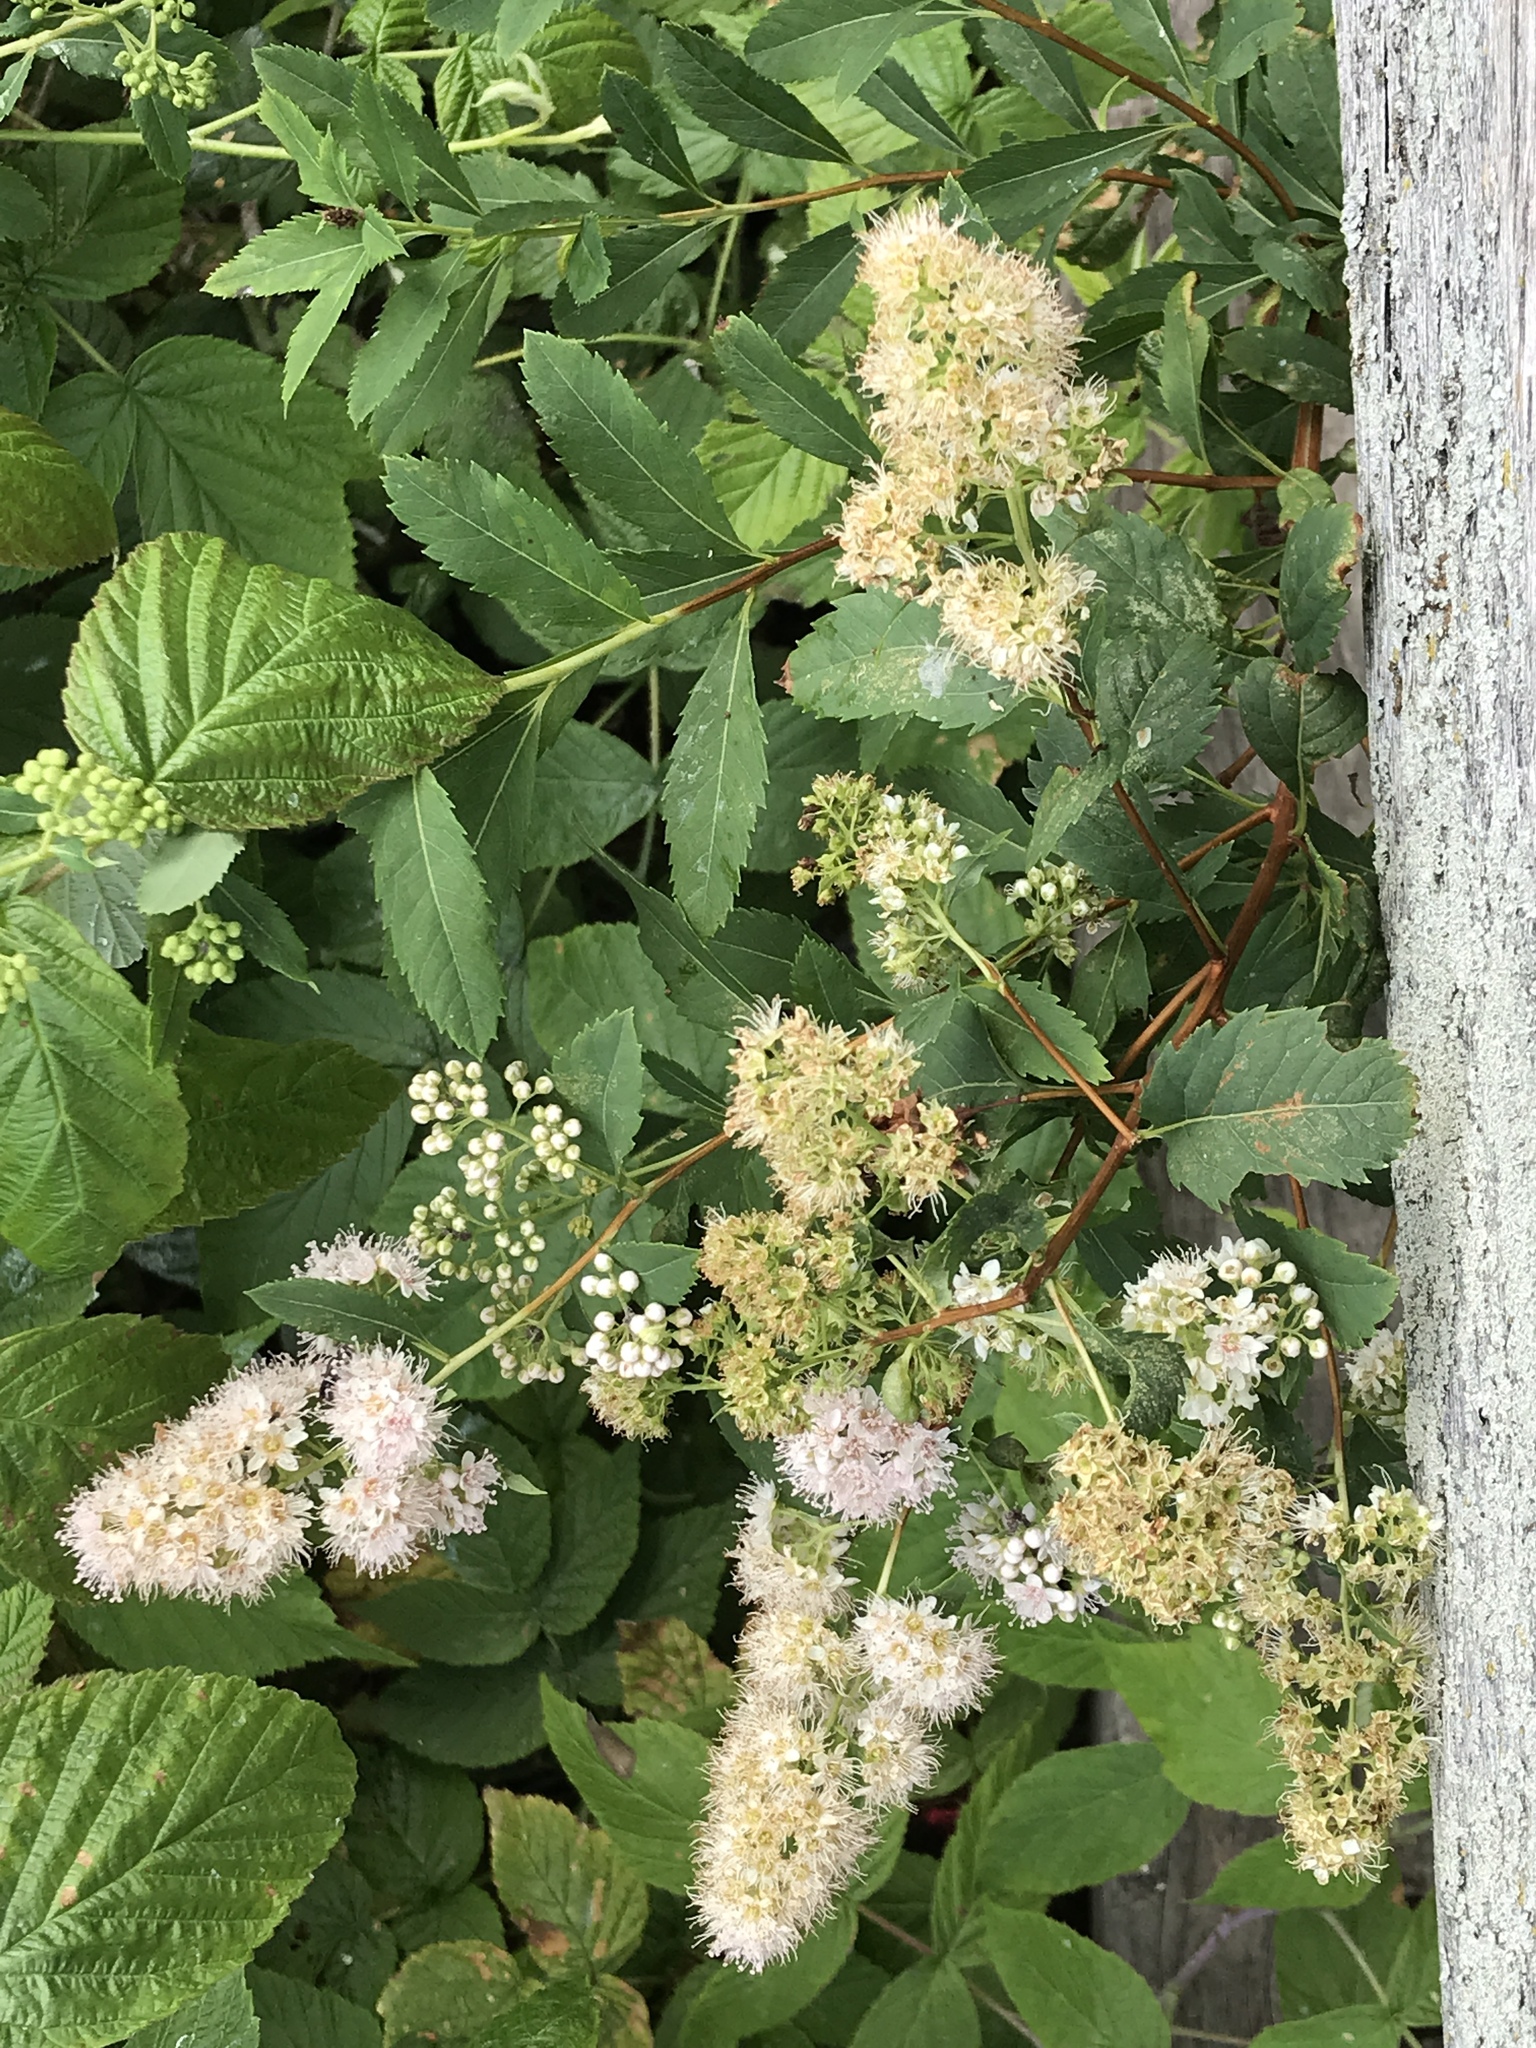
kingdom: Plantae
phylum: Tracheophyta
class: Magnoliopsida
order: Rosales
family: Rosaceae
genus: Spiraea
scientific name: Spiraea alba
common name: Pale bridewort
